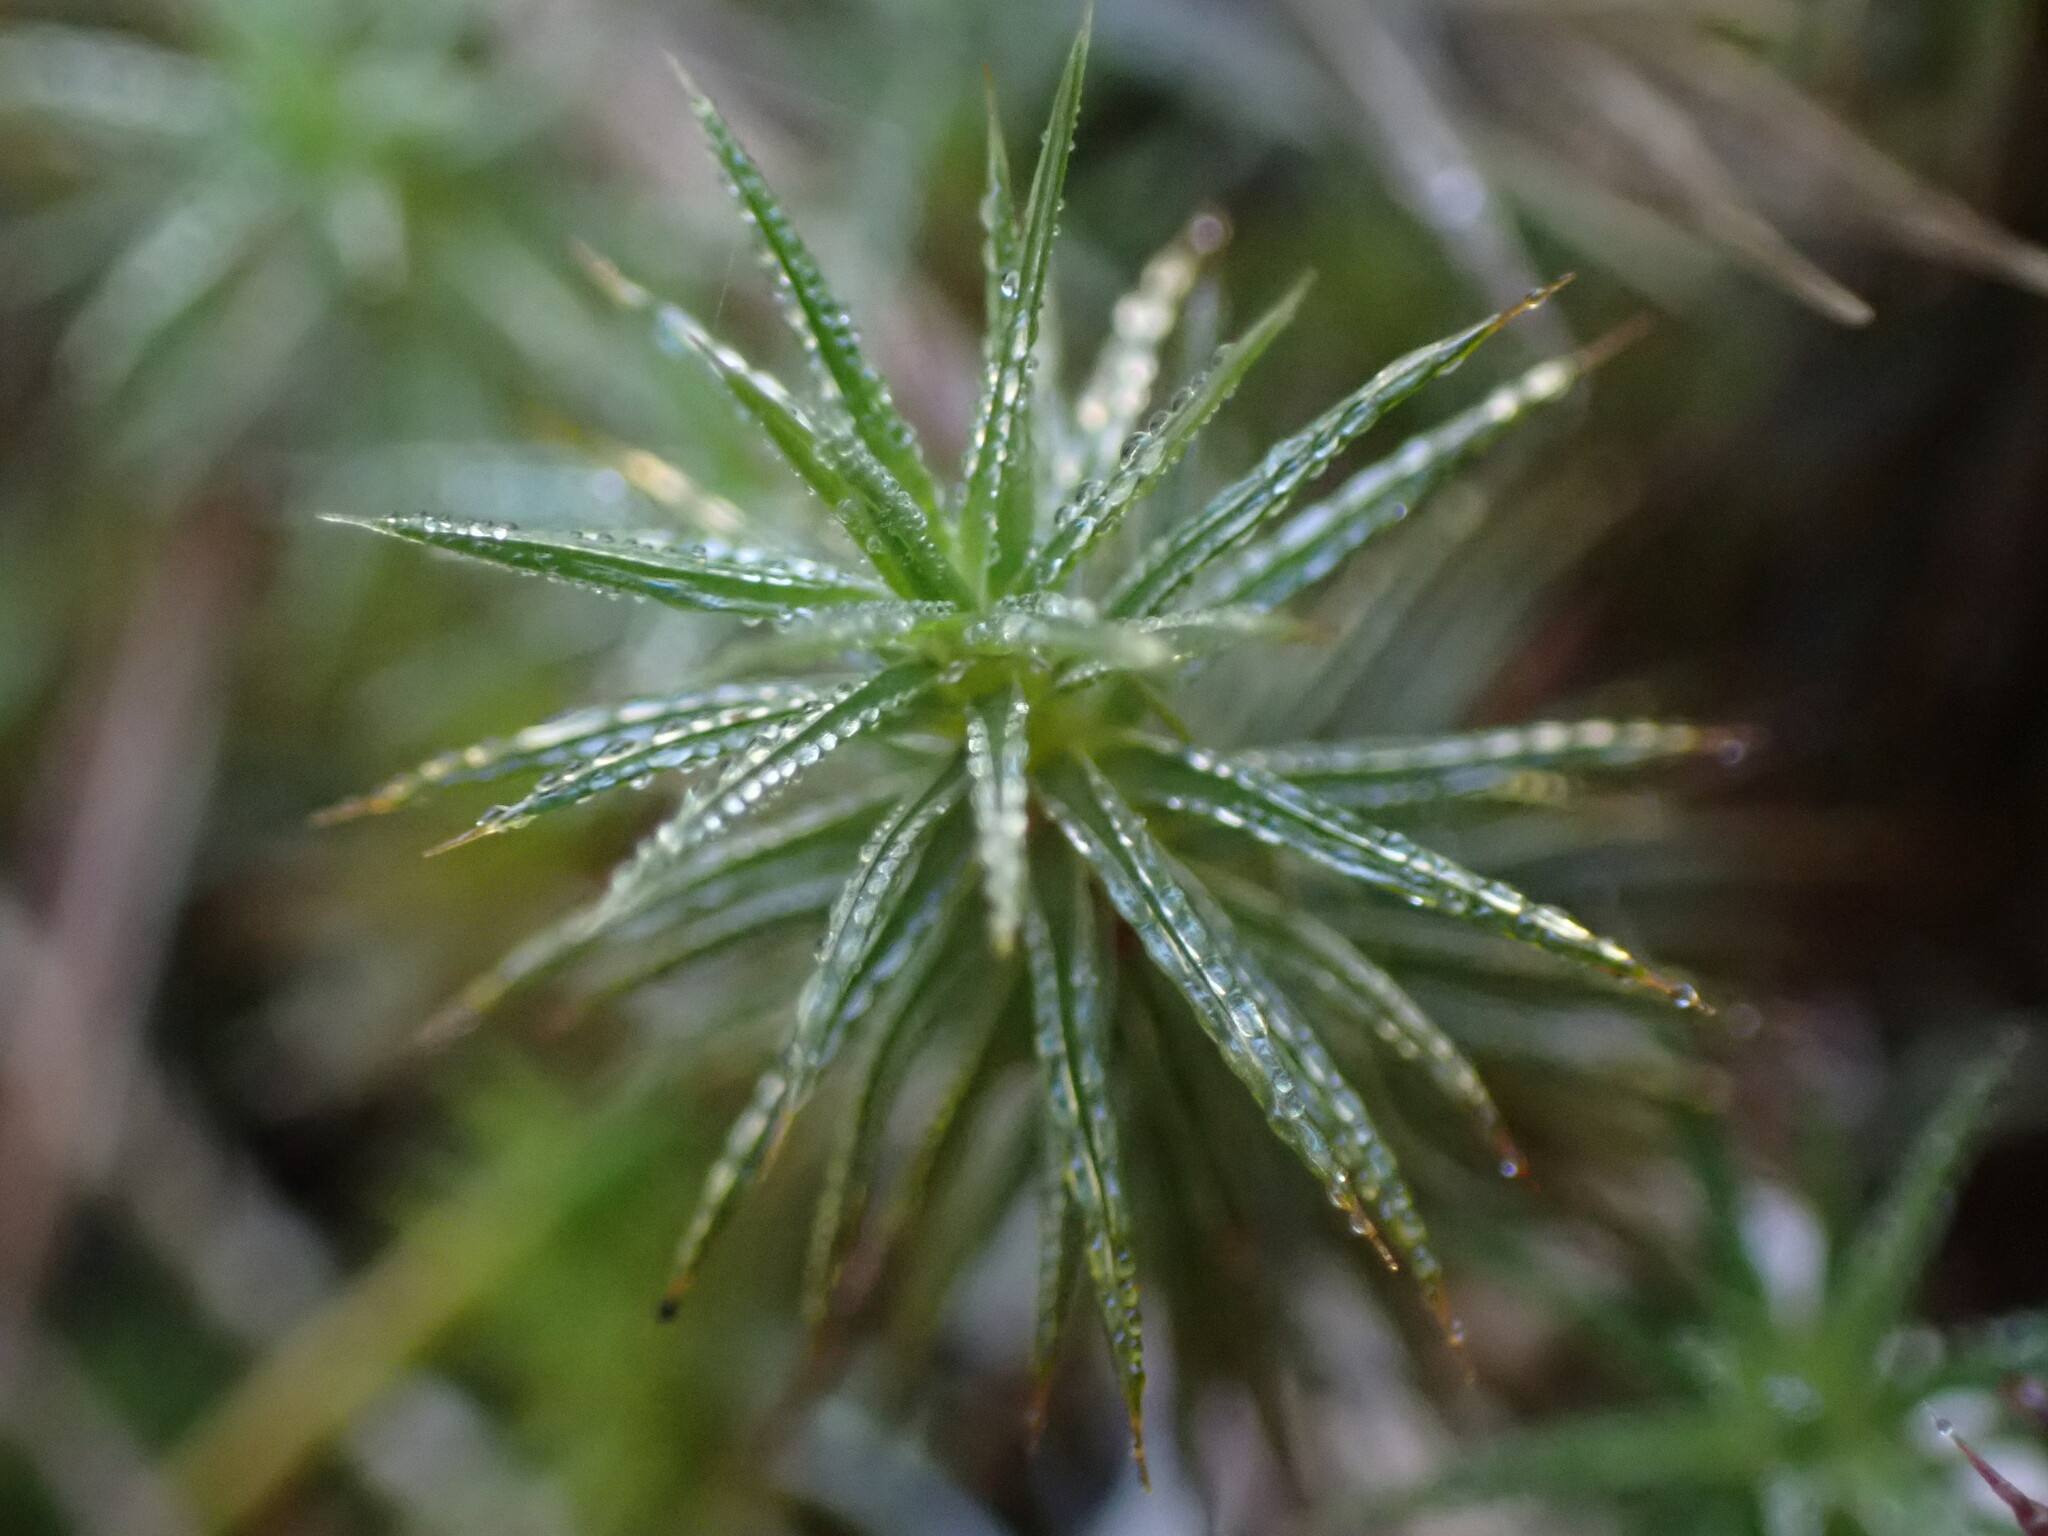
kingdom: Plantae
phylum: Bryophyta
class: Polytrichopsida
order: Polytrichales
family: Polytrichaceae
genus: Polytrichum
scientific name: Polytrichum juniperinum
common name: Juniper haircap moss
